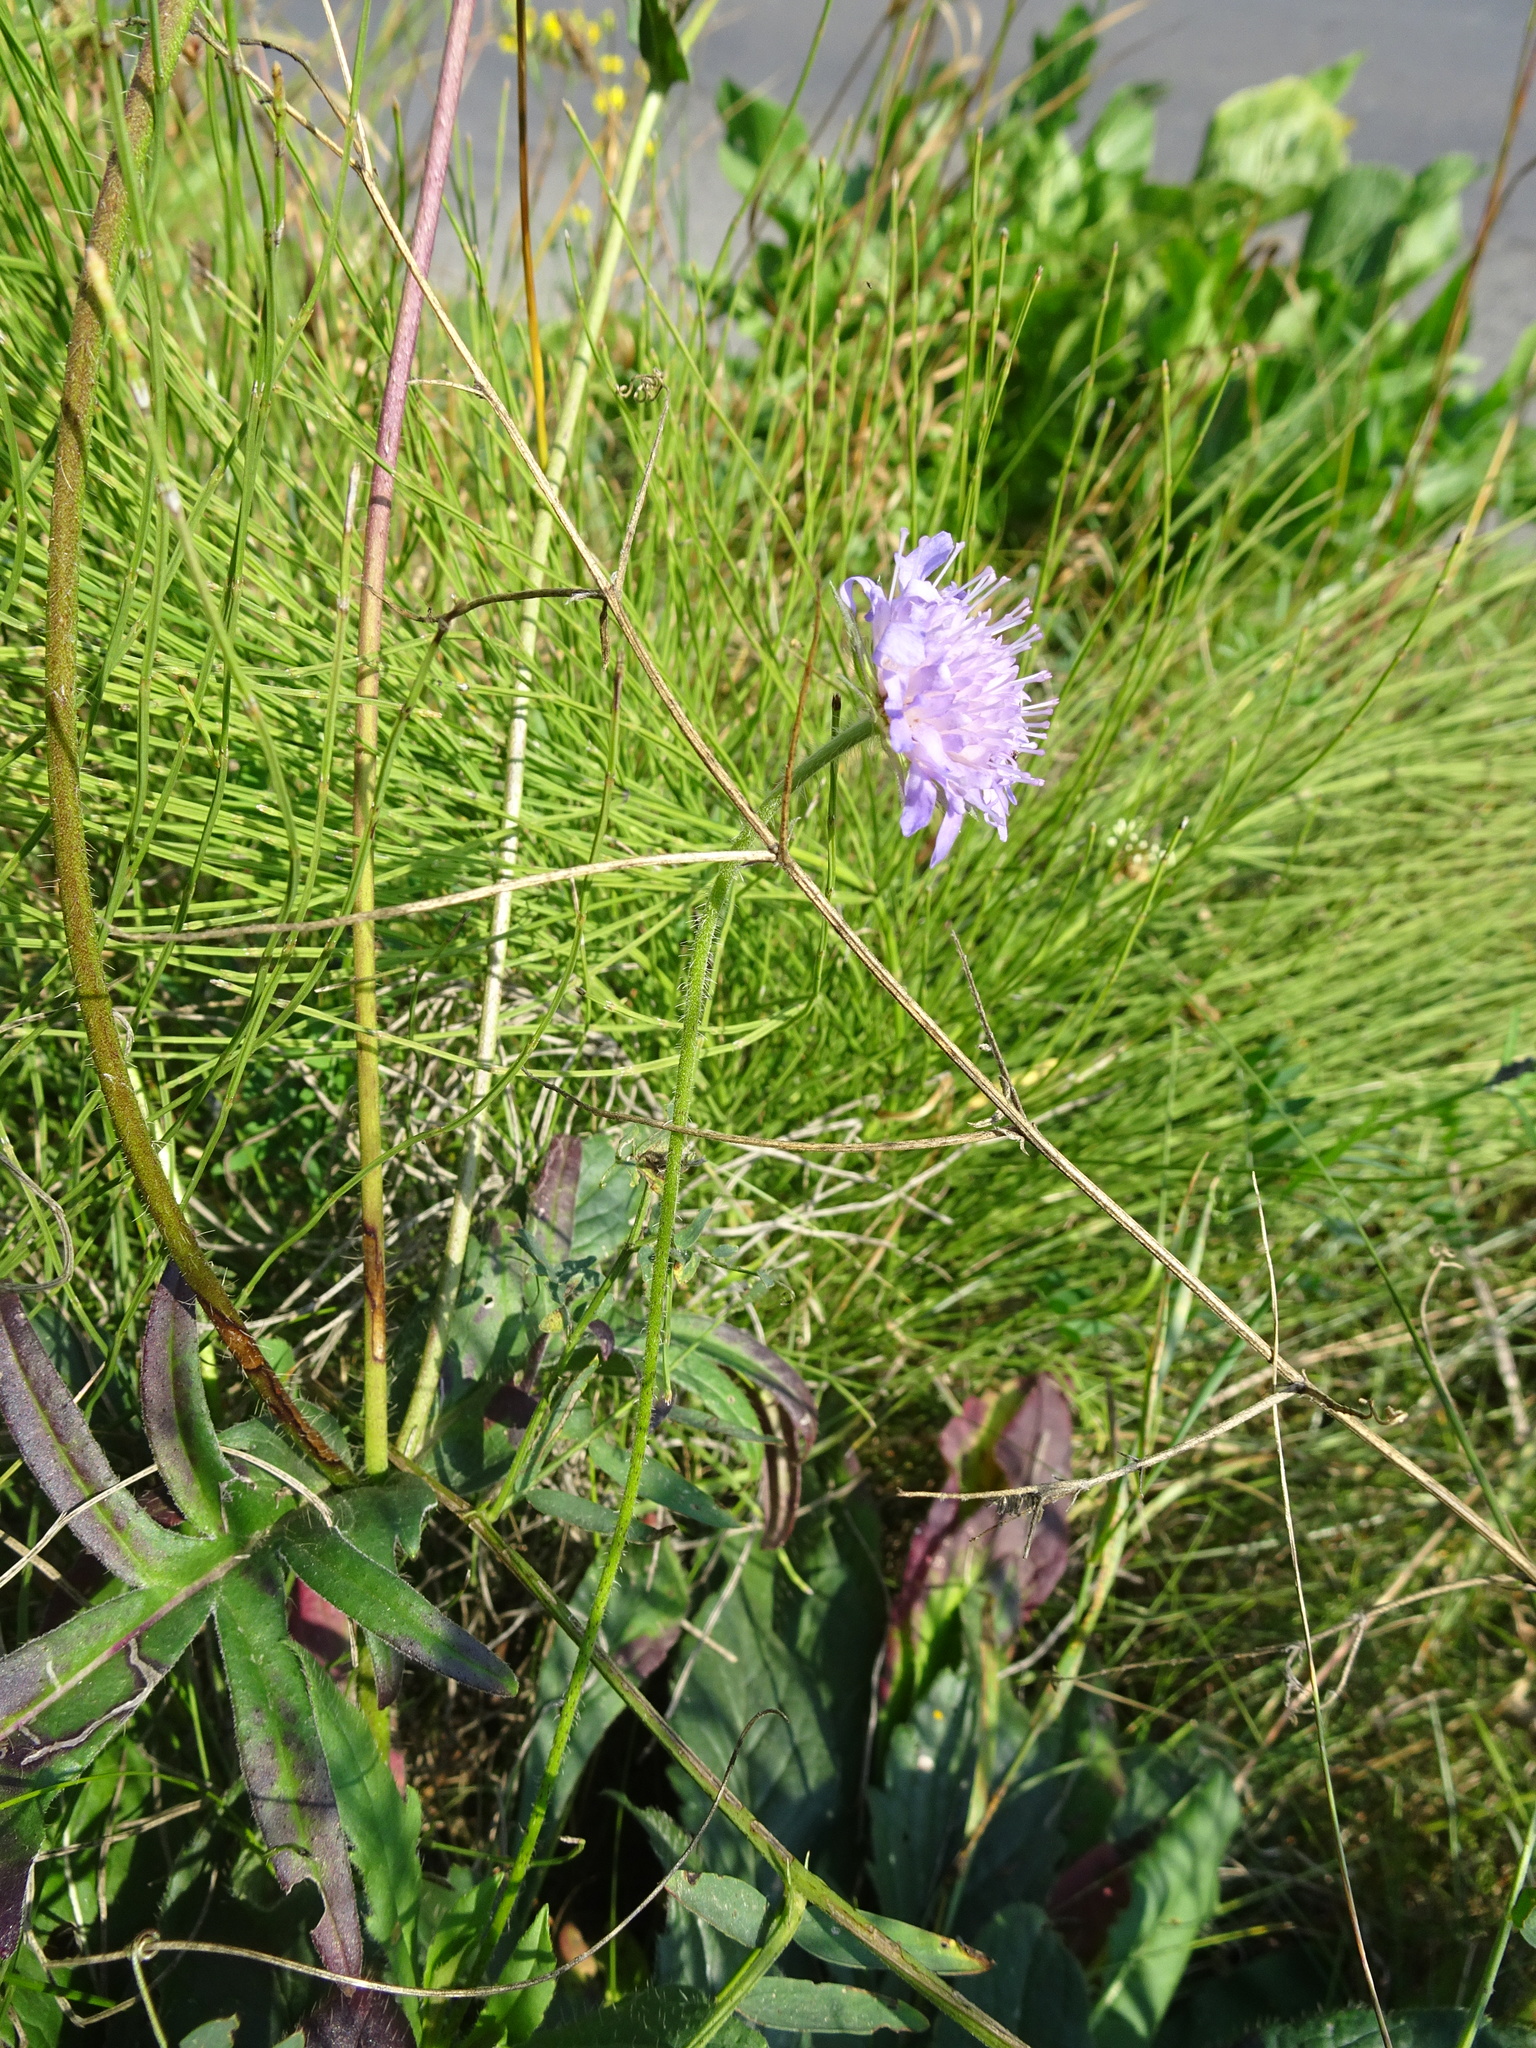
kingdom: Plantae
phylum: Tracheophyta
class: Magnoliopsida
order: Dipsacales
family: Caprifoliaceae
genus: Knautia
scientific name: Knautia arvensis
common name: Field scabiosa
